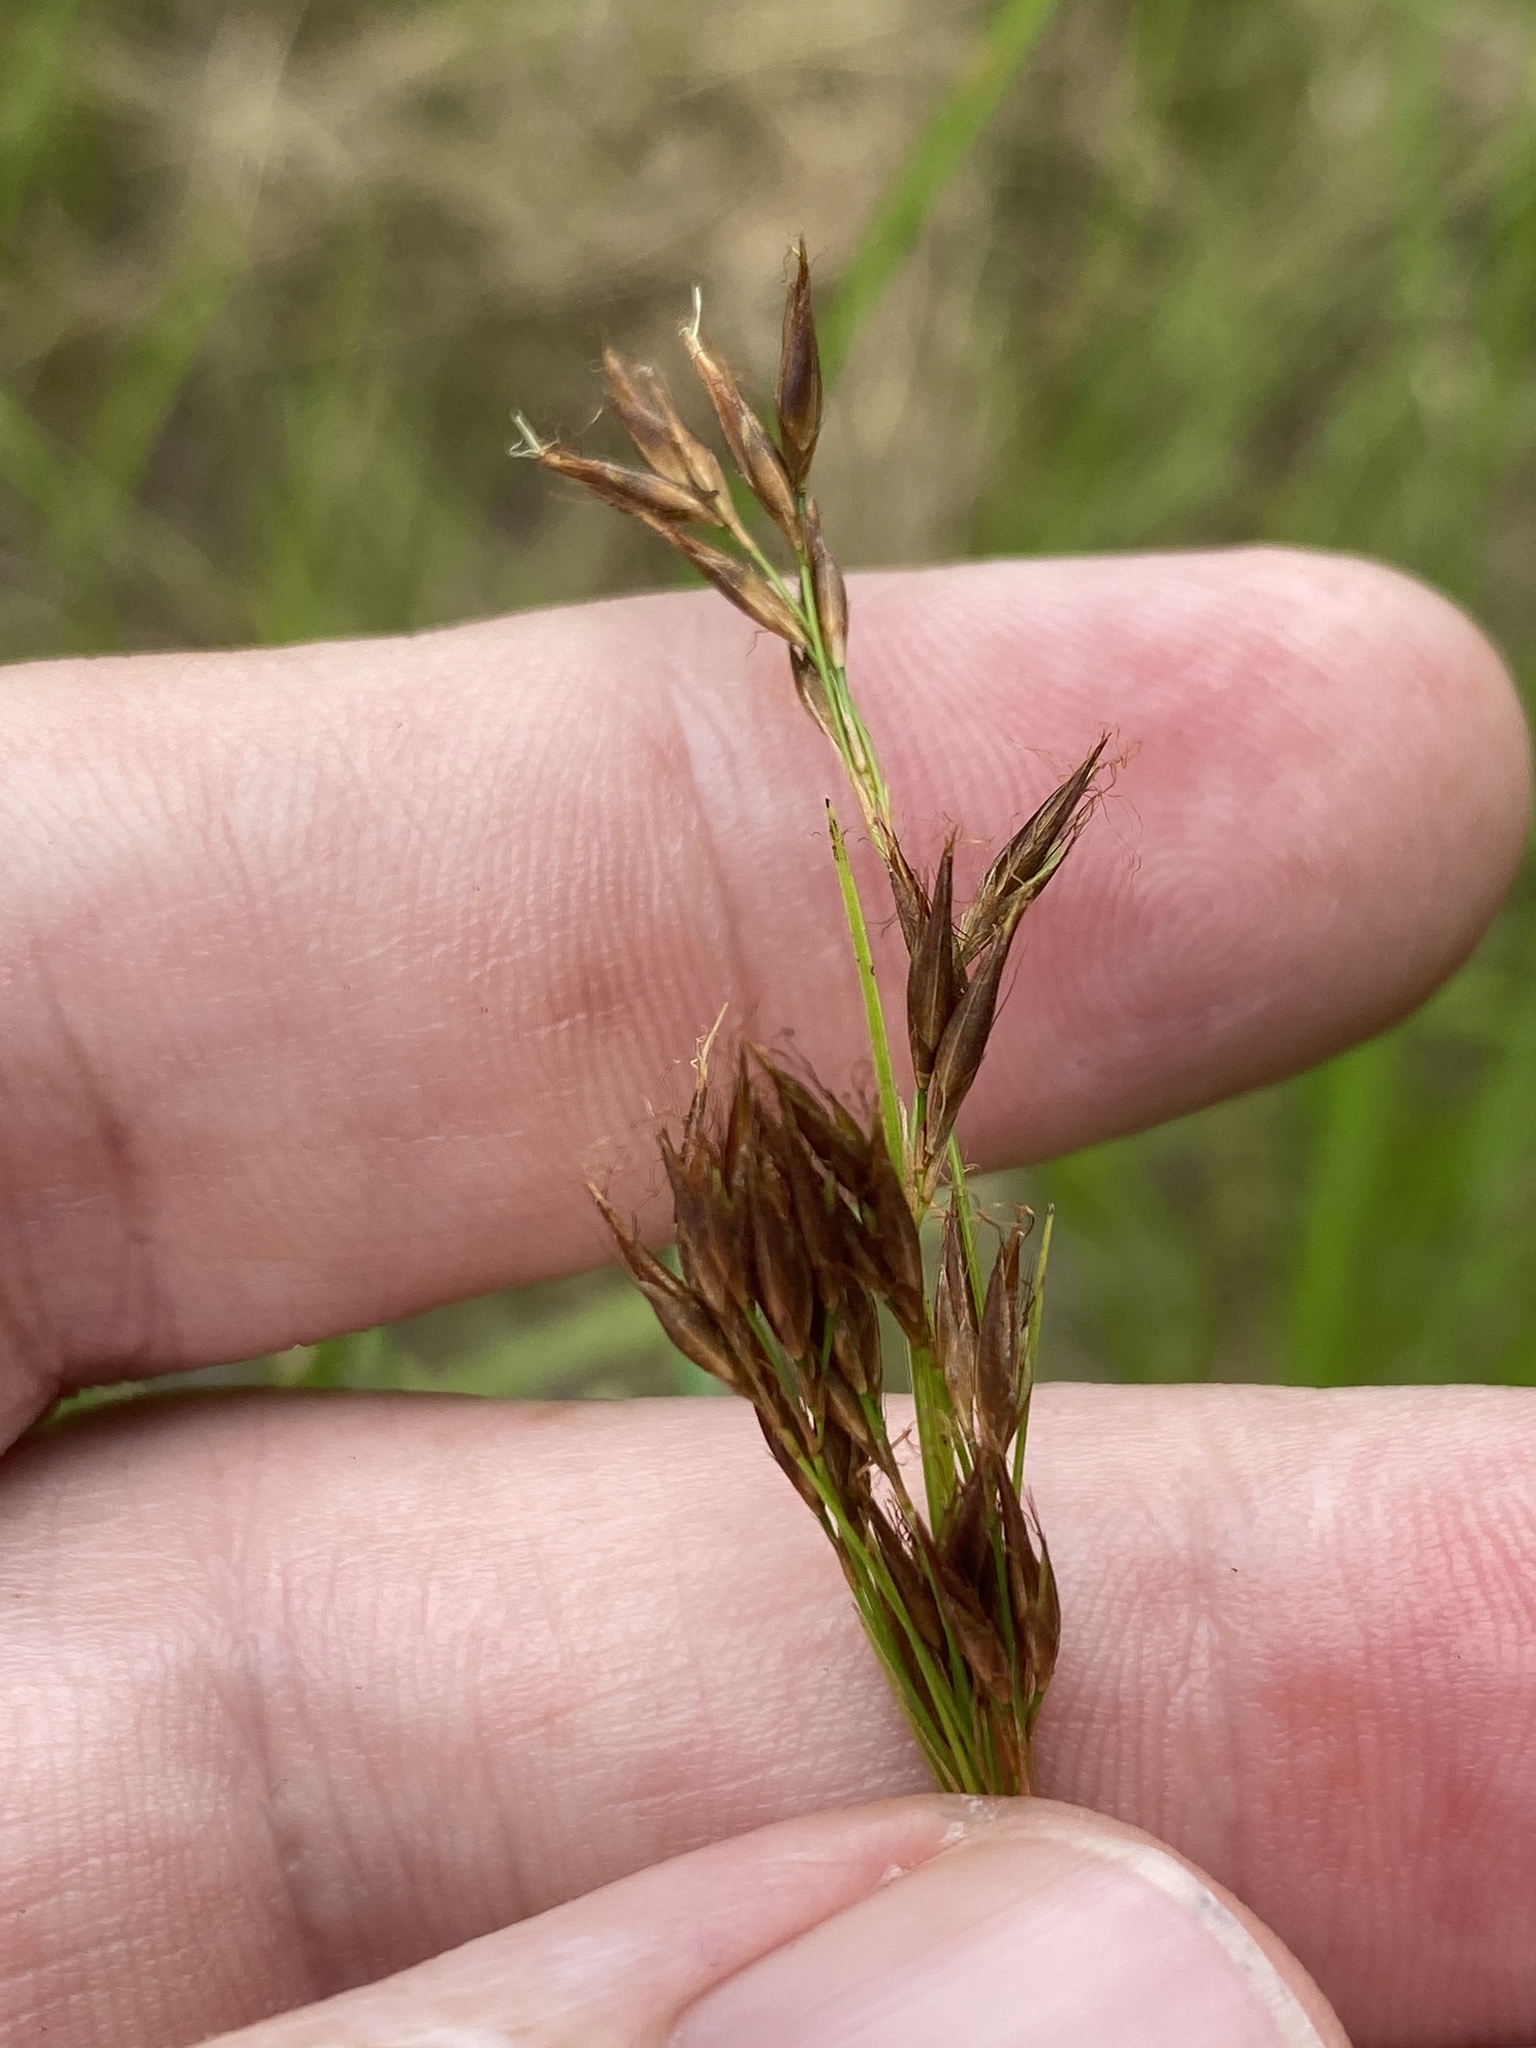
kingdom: Plantae
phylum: Tracheophyta
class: Liliopsida
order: Poales
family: Cyperaceae
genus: Rhynchospora
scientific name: Rhynchospora inexpansa
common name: Nodding beaksedge
